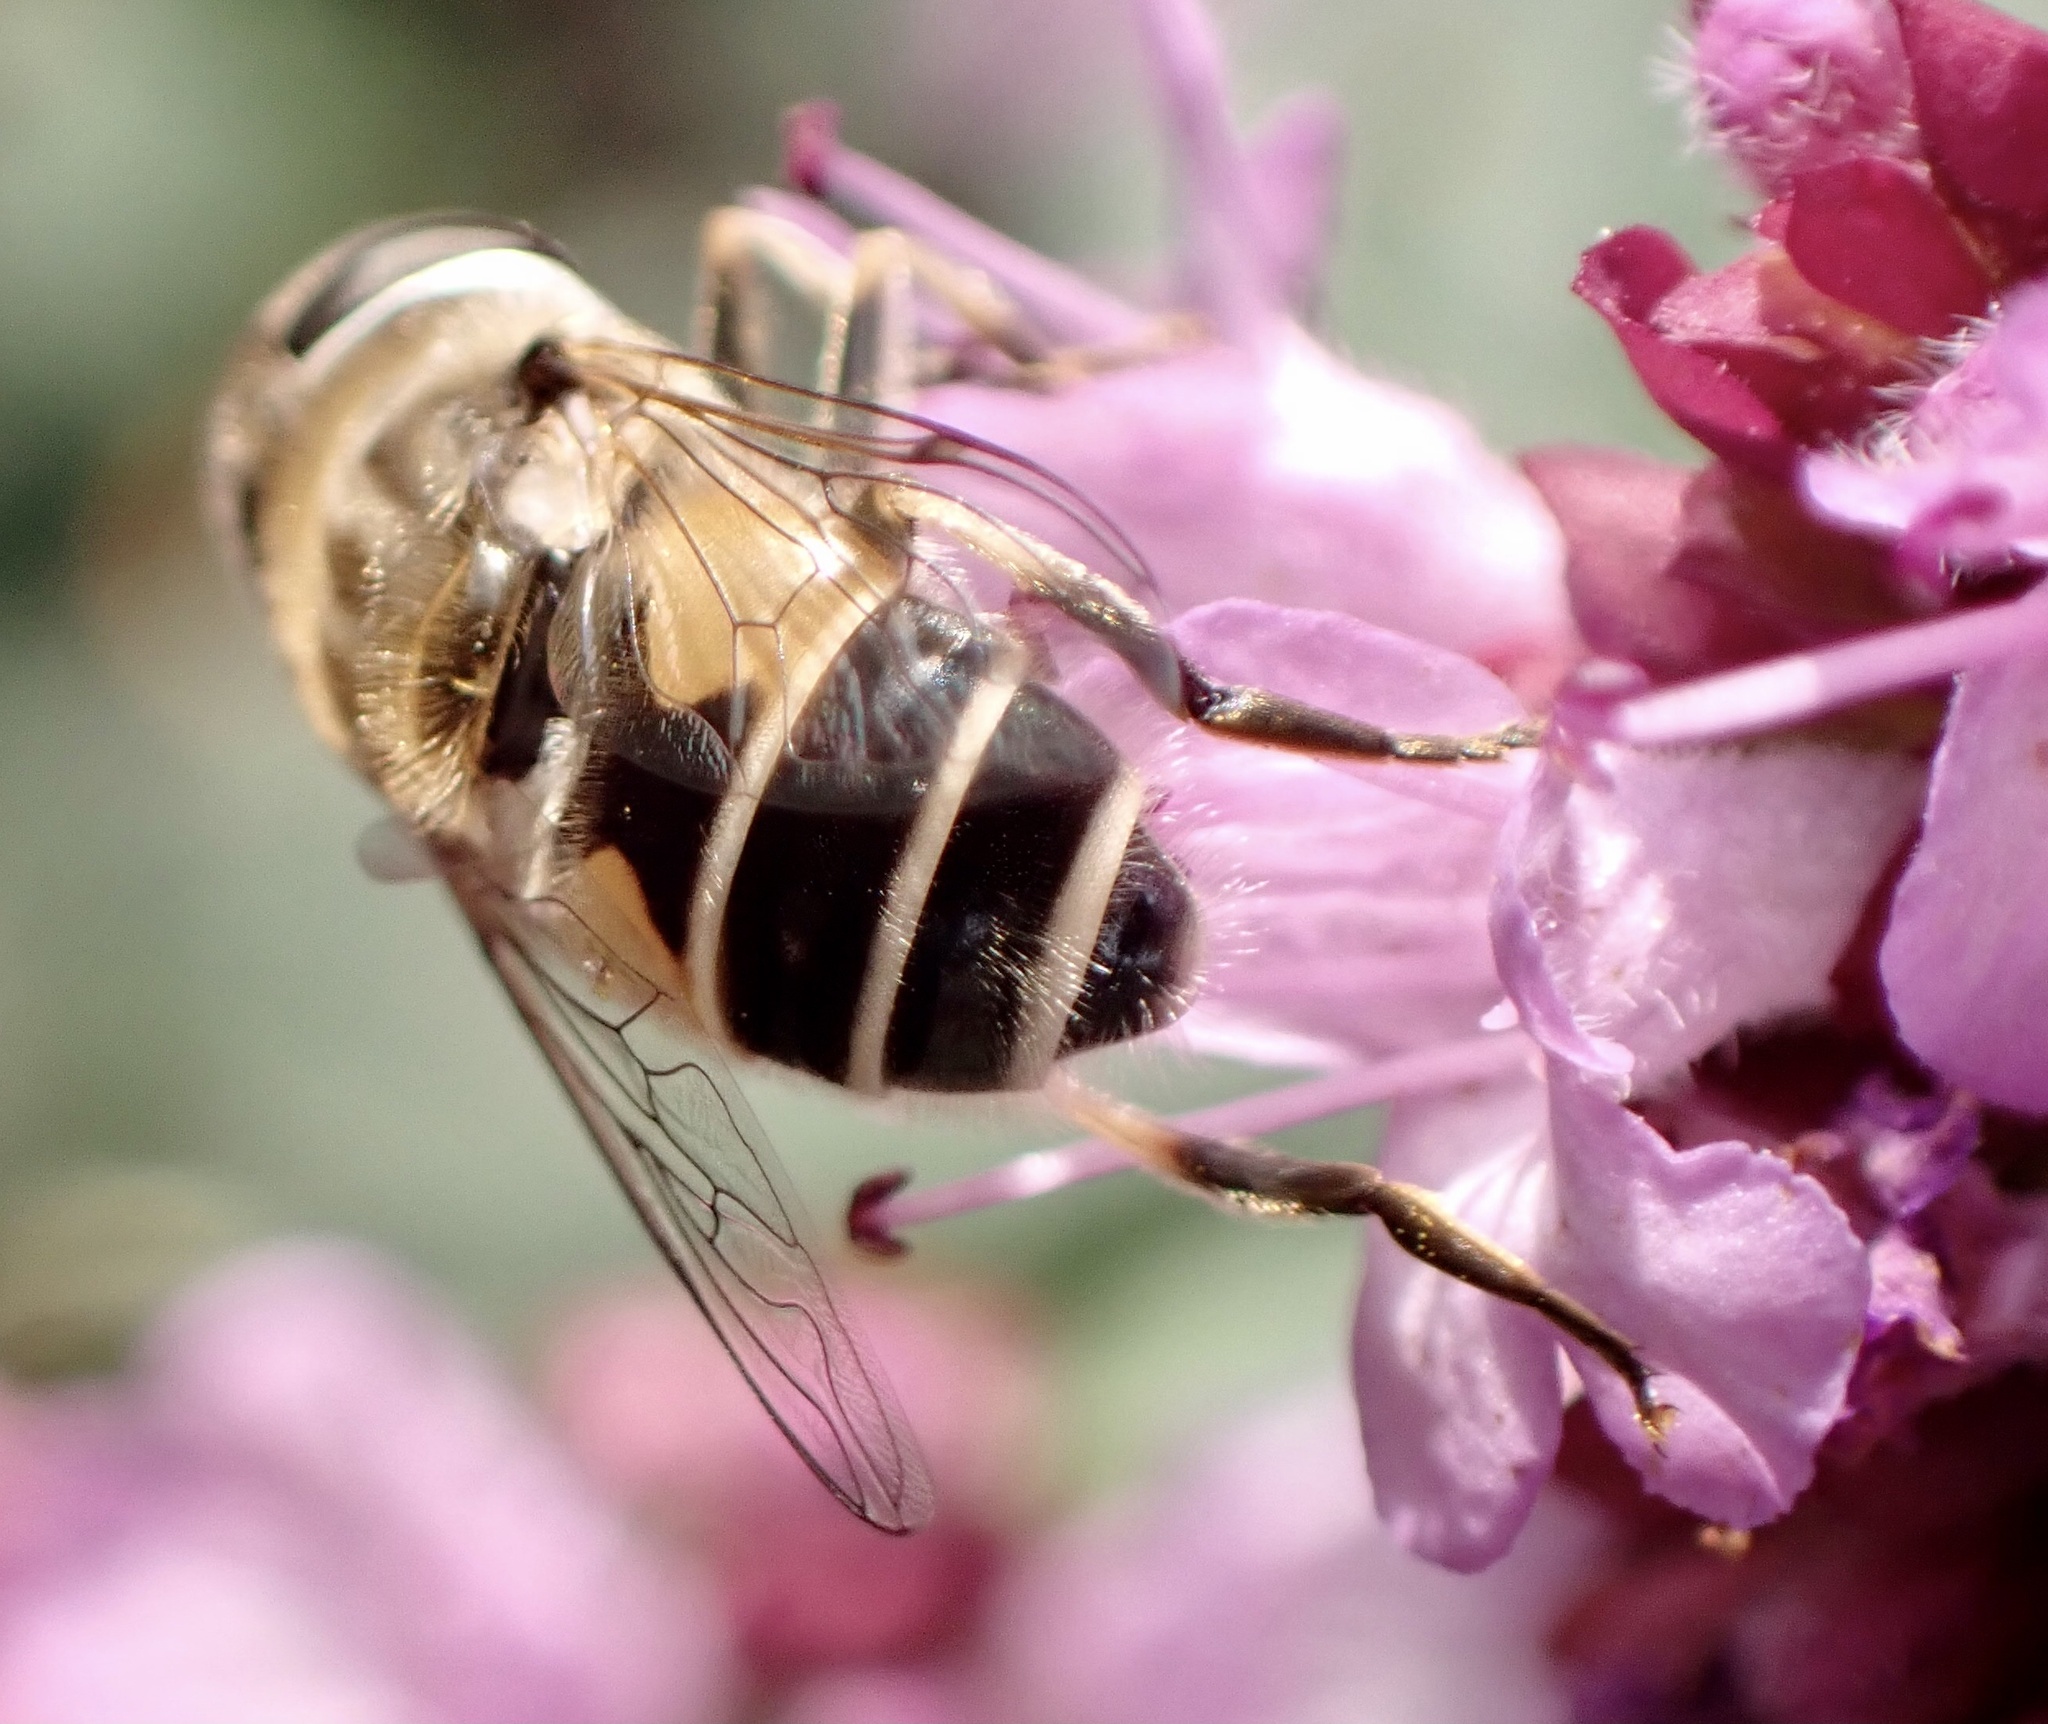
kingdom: Animalia
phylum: Arthropoda
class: Insecta
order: Diptera
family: Syrphidae
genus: Eristalis
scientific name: Eristalis arbustorum
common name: Hover fly
